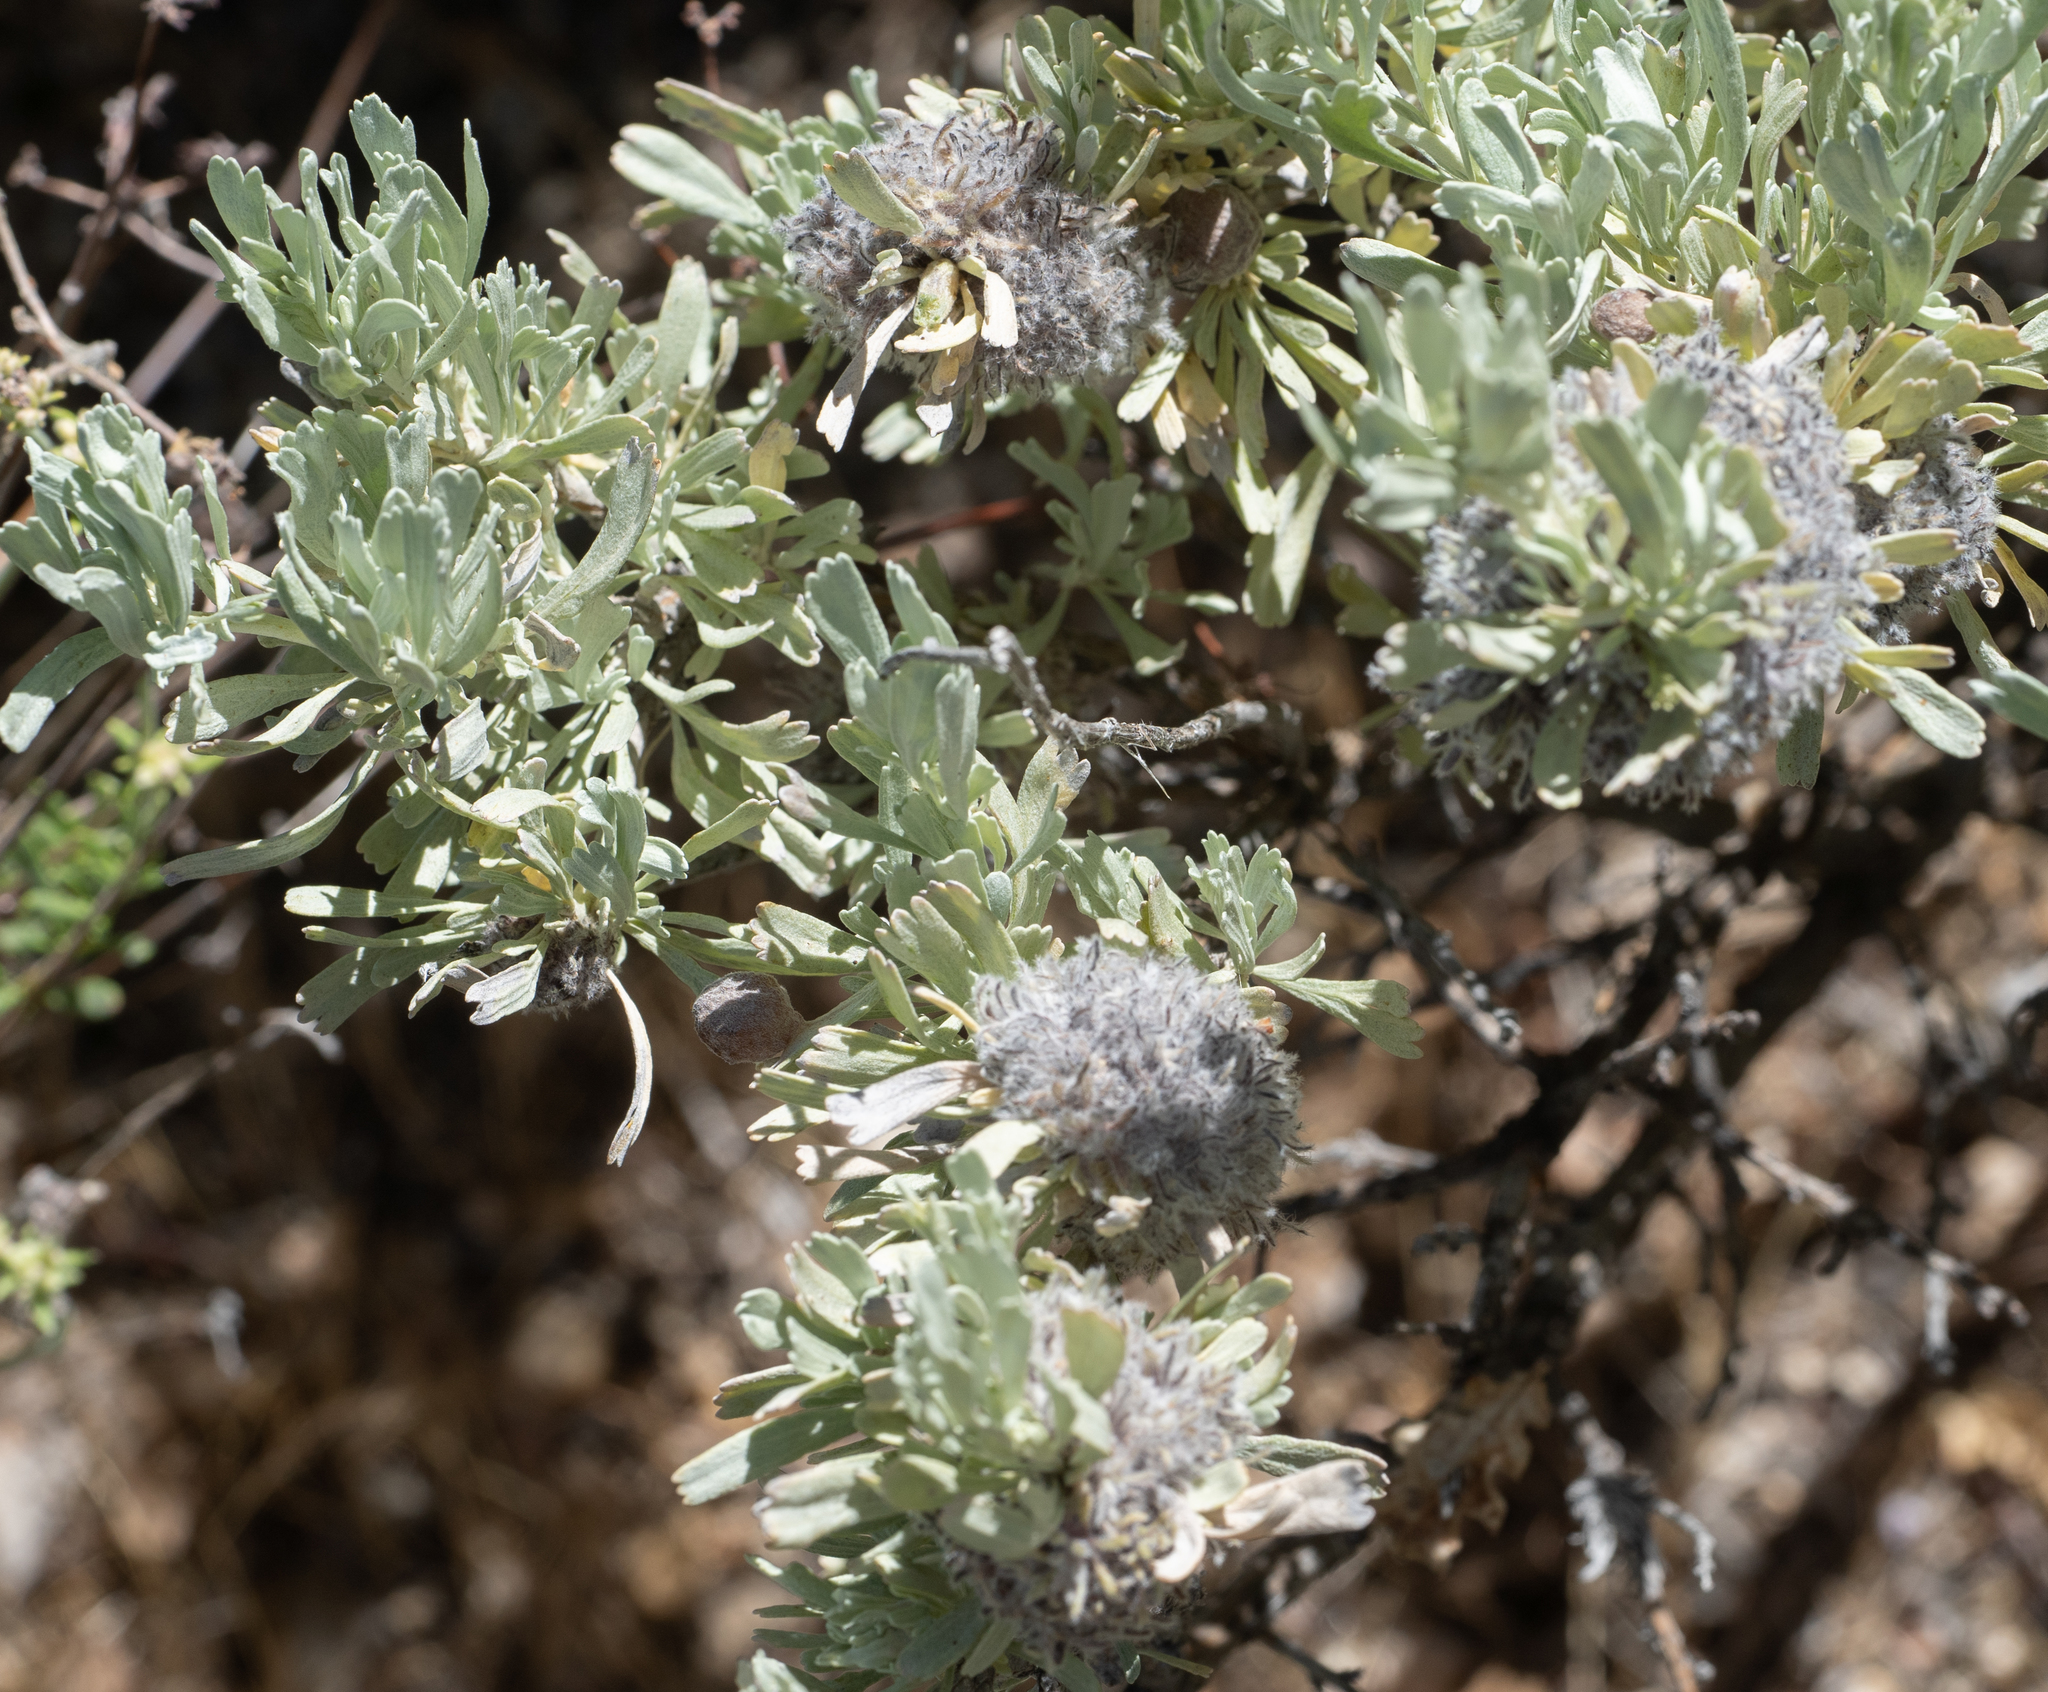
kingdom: Animalia
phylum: Arthropoda
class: Insecta
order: Diptera
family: Cecidomyiidae
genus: Rhopalomyia
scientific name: Rhopalomyia medusirrasa
